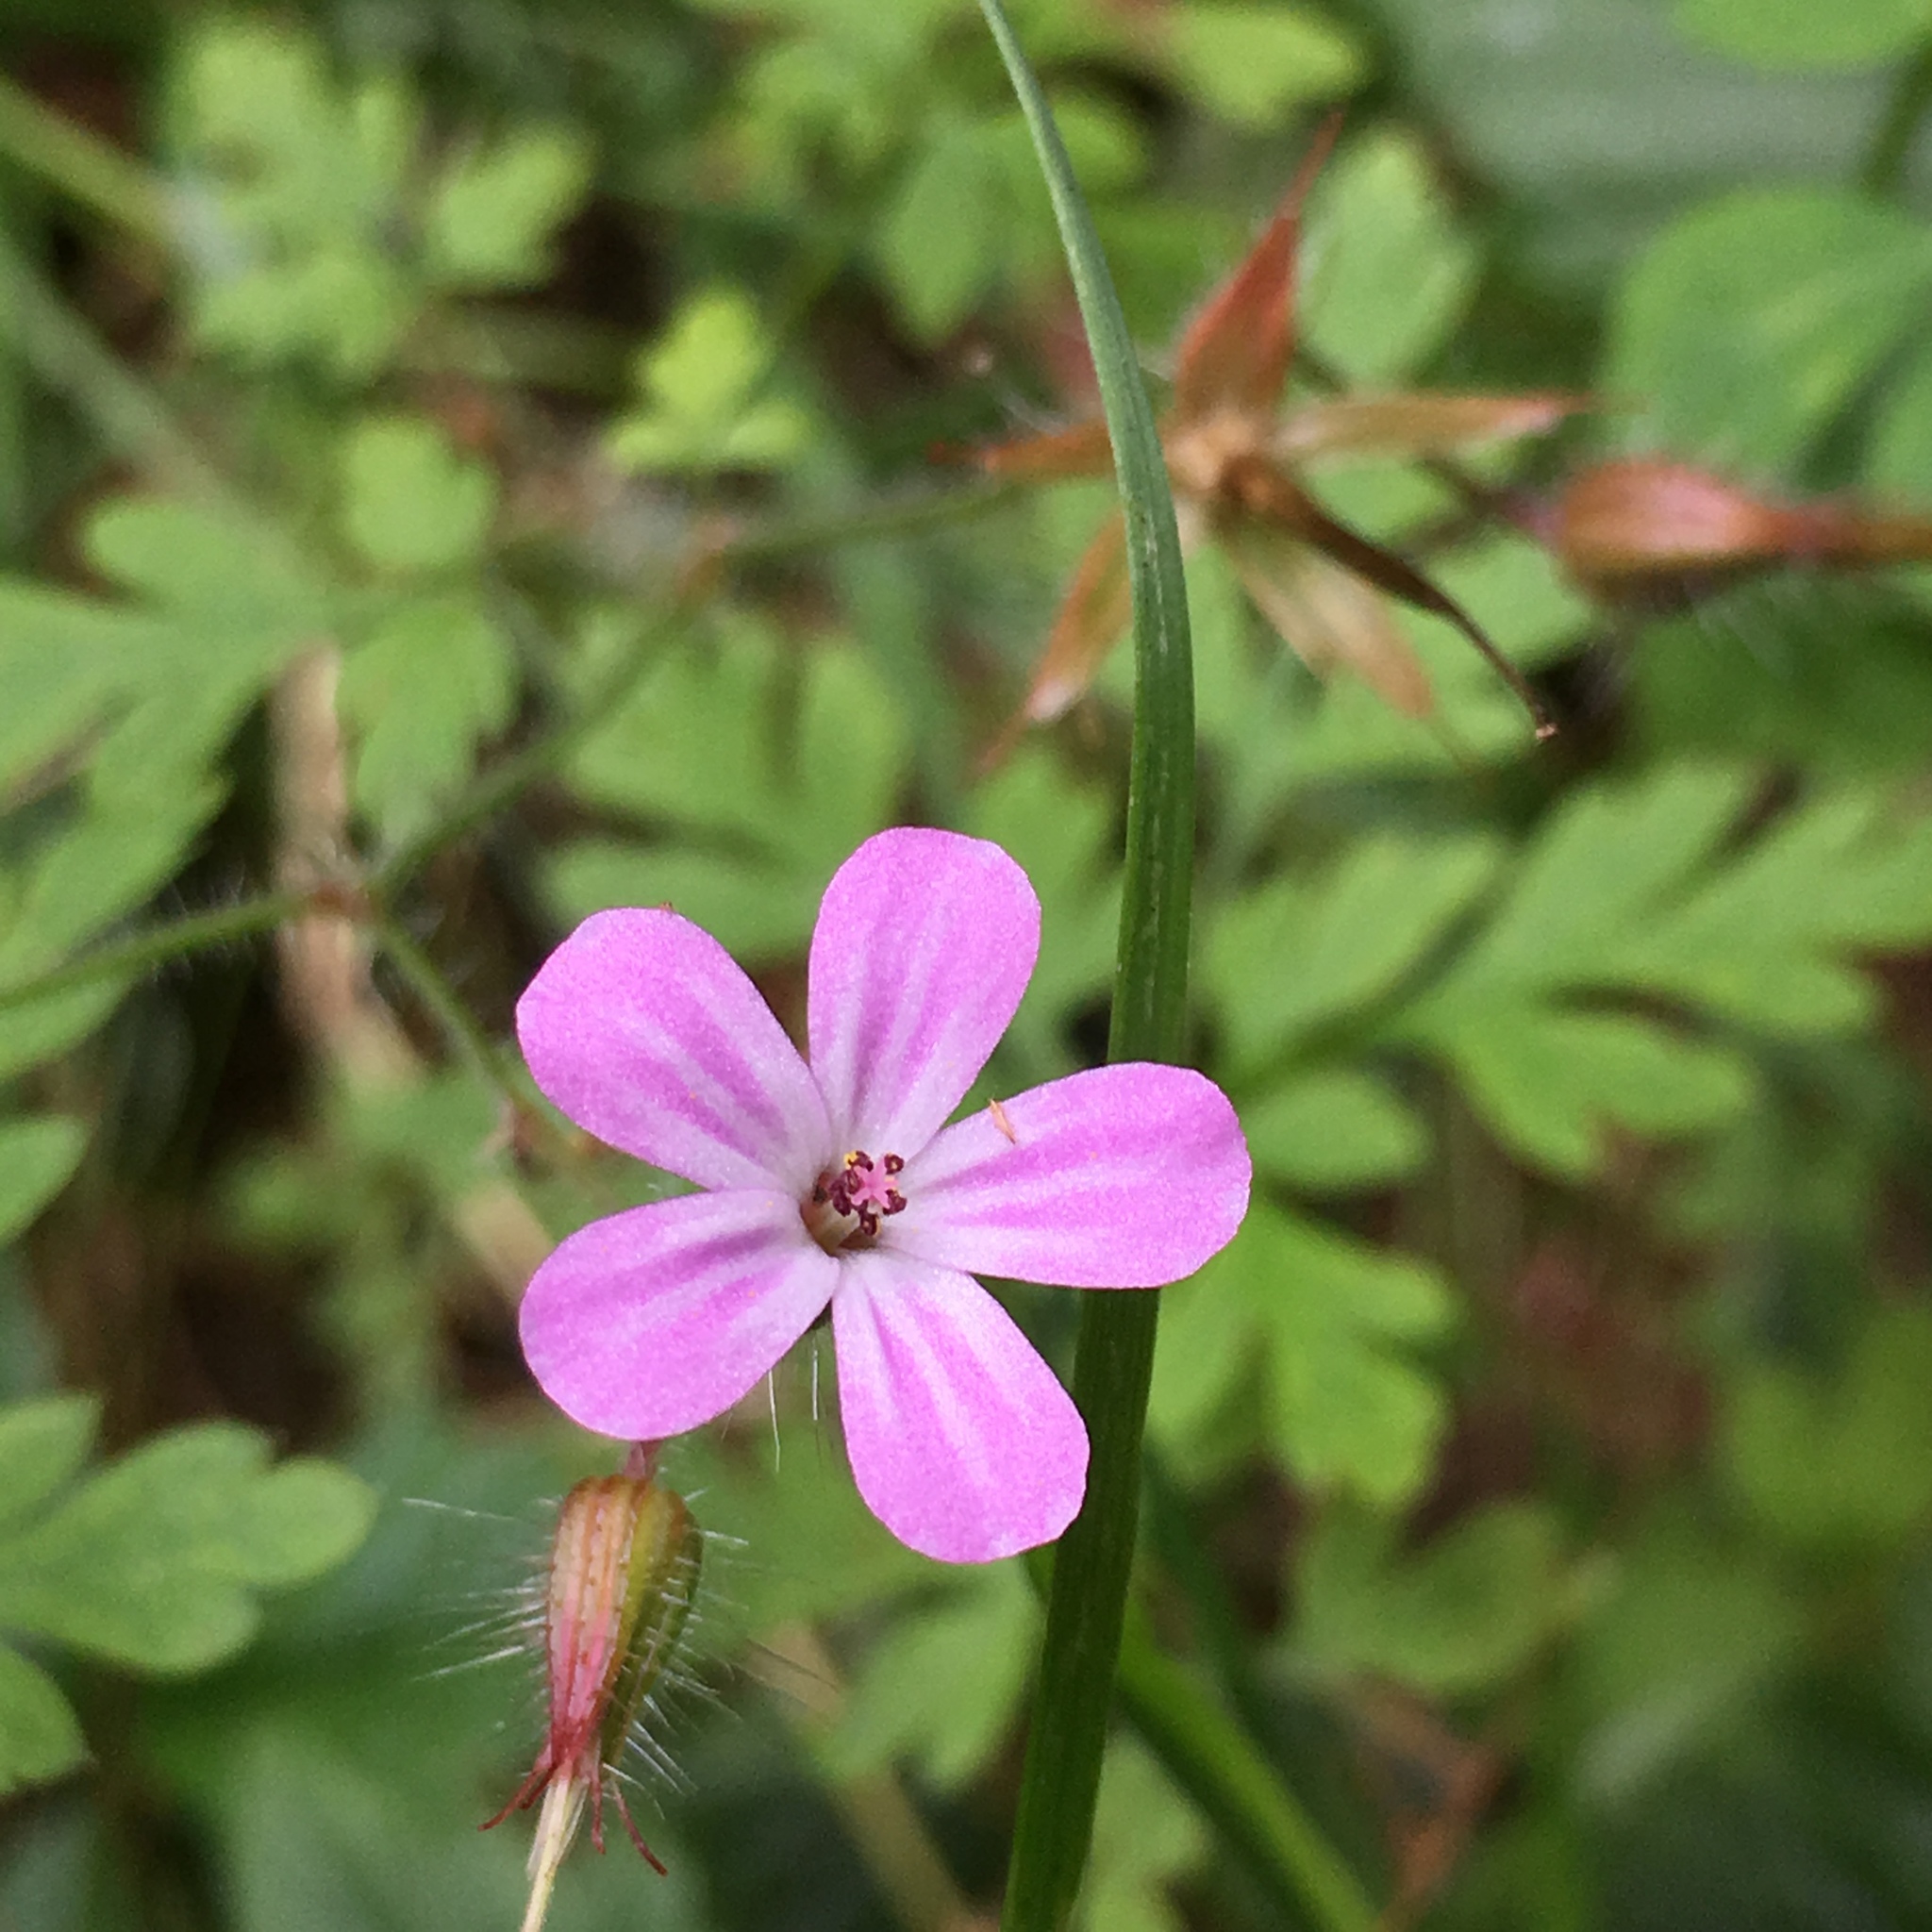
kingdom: Plantae
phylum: Tracheophyta
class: Magnoliopsida
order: Geraniales
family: Geraniaceae
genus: Geranium
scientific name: Geranium robertianum
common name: Herb-robert
